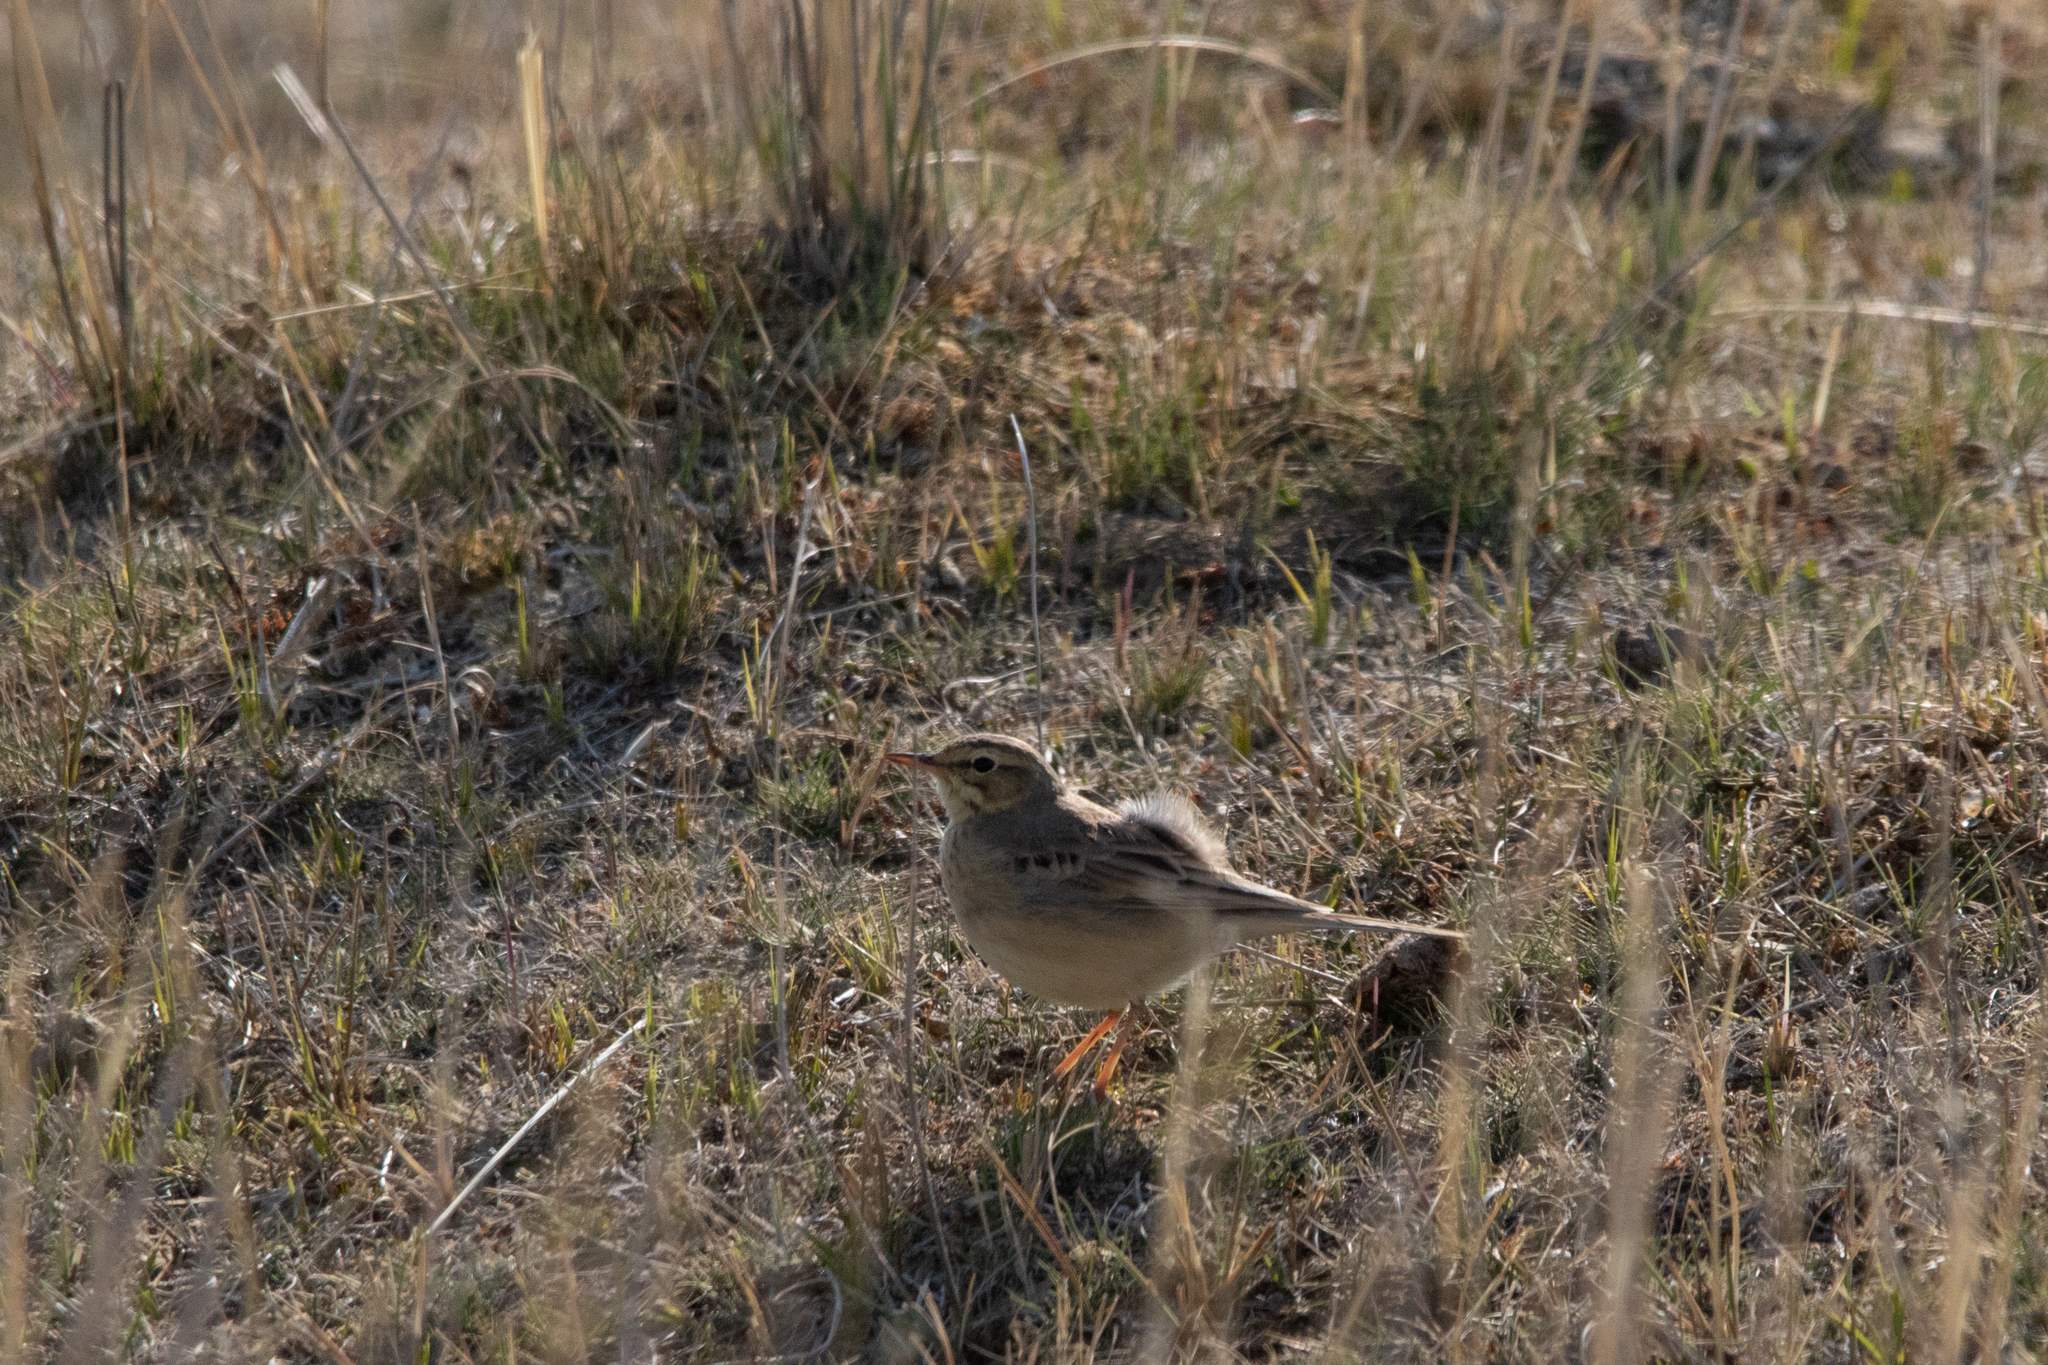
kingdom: Animalia
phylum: Chordata
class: Aves
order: Passeriformes
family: Motacillidae
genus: Anthus
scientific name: Anthus campestris
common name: Tawny pipit
